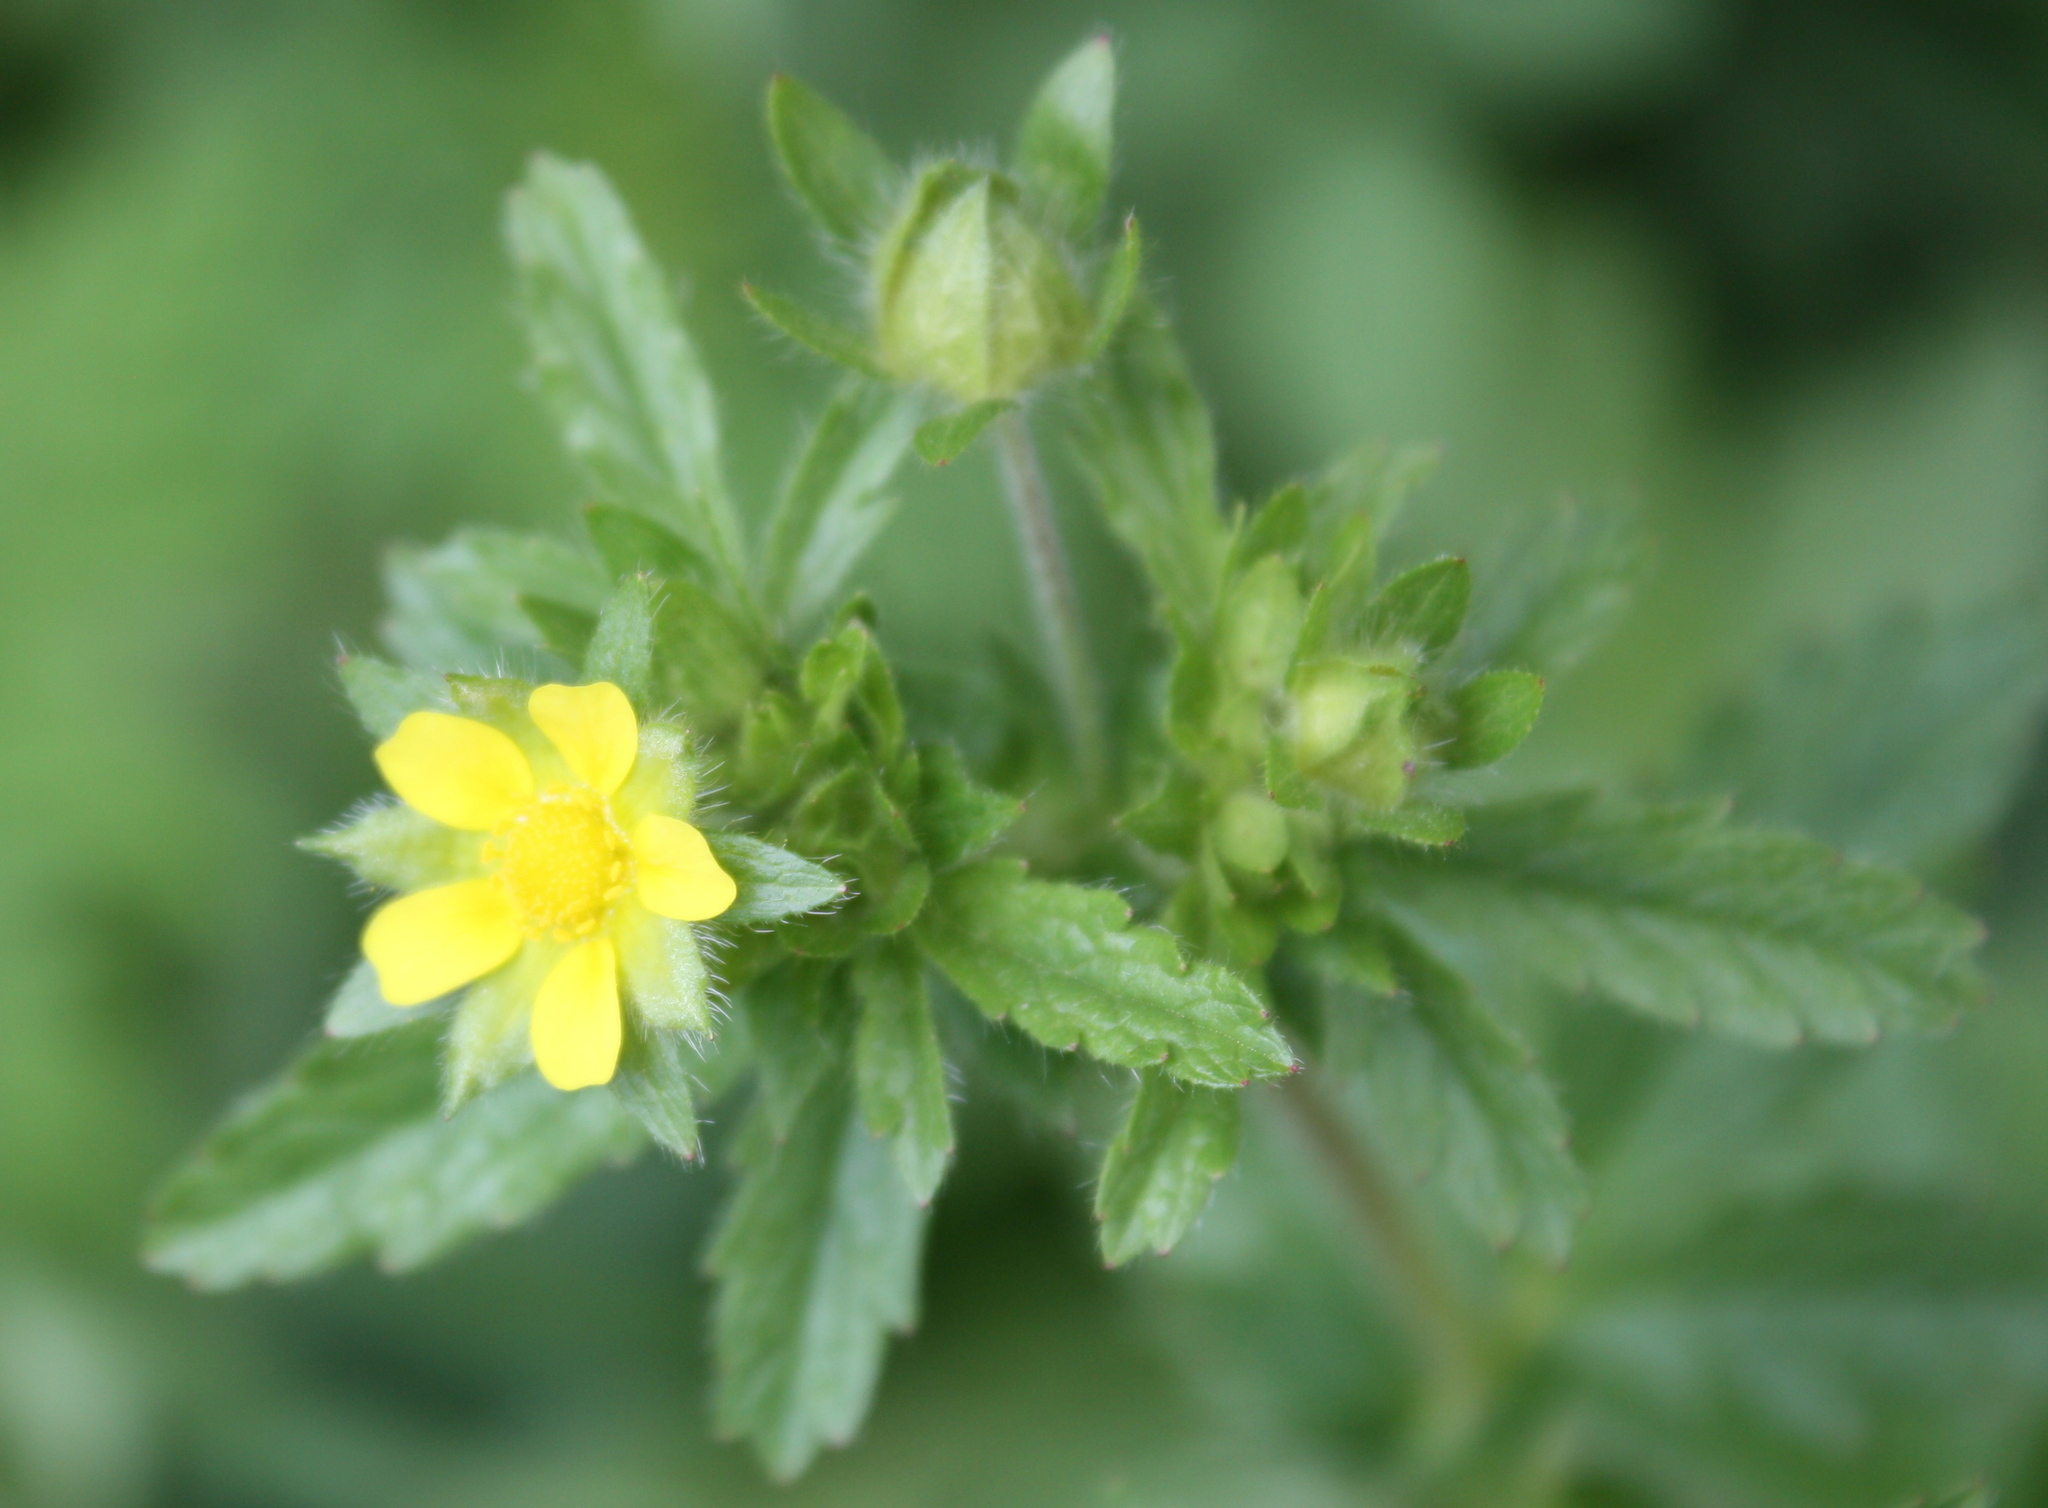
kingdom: Plantae
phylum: Tracheophyta
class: Magnoliopsida
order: Rosales
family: Rosaceae
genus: Potentilla
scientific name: Potentilla norvegica
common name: Ternate-leaved cinquefoil
